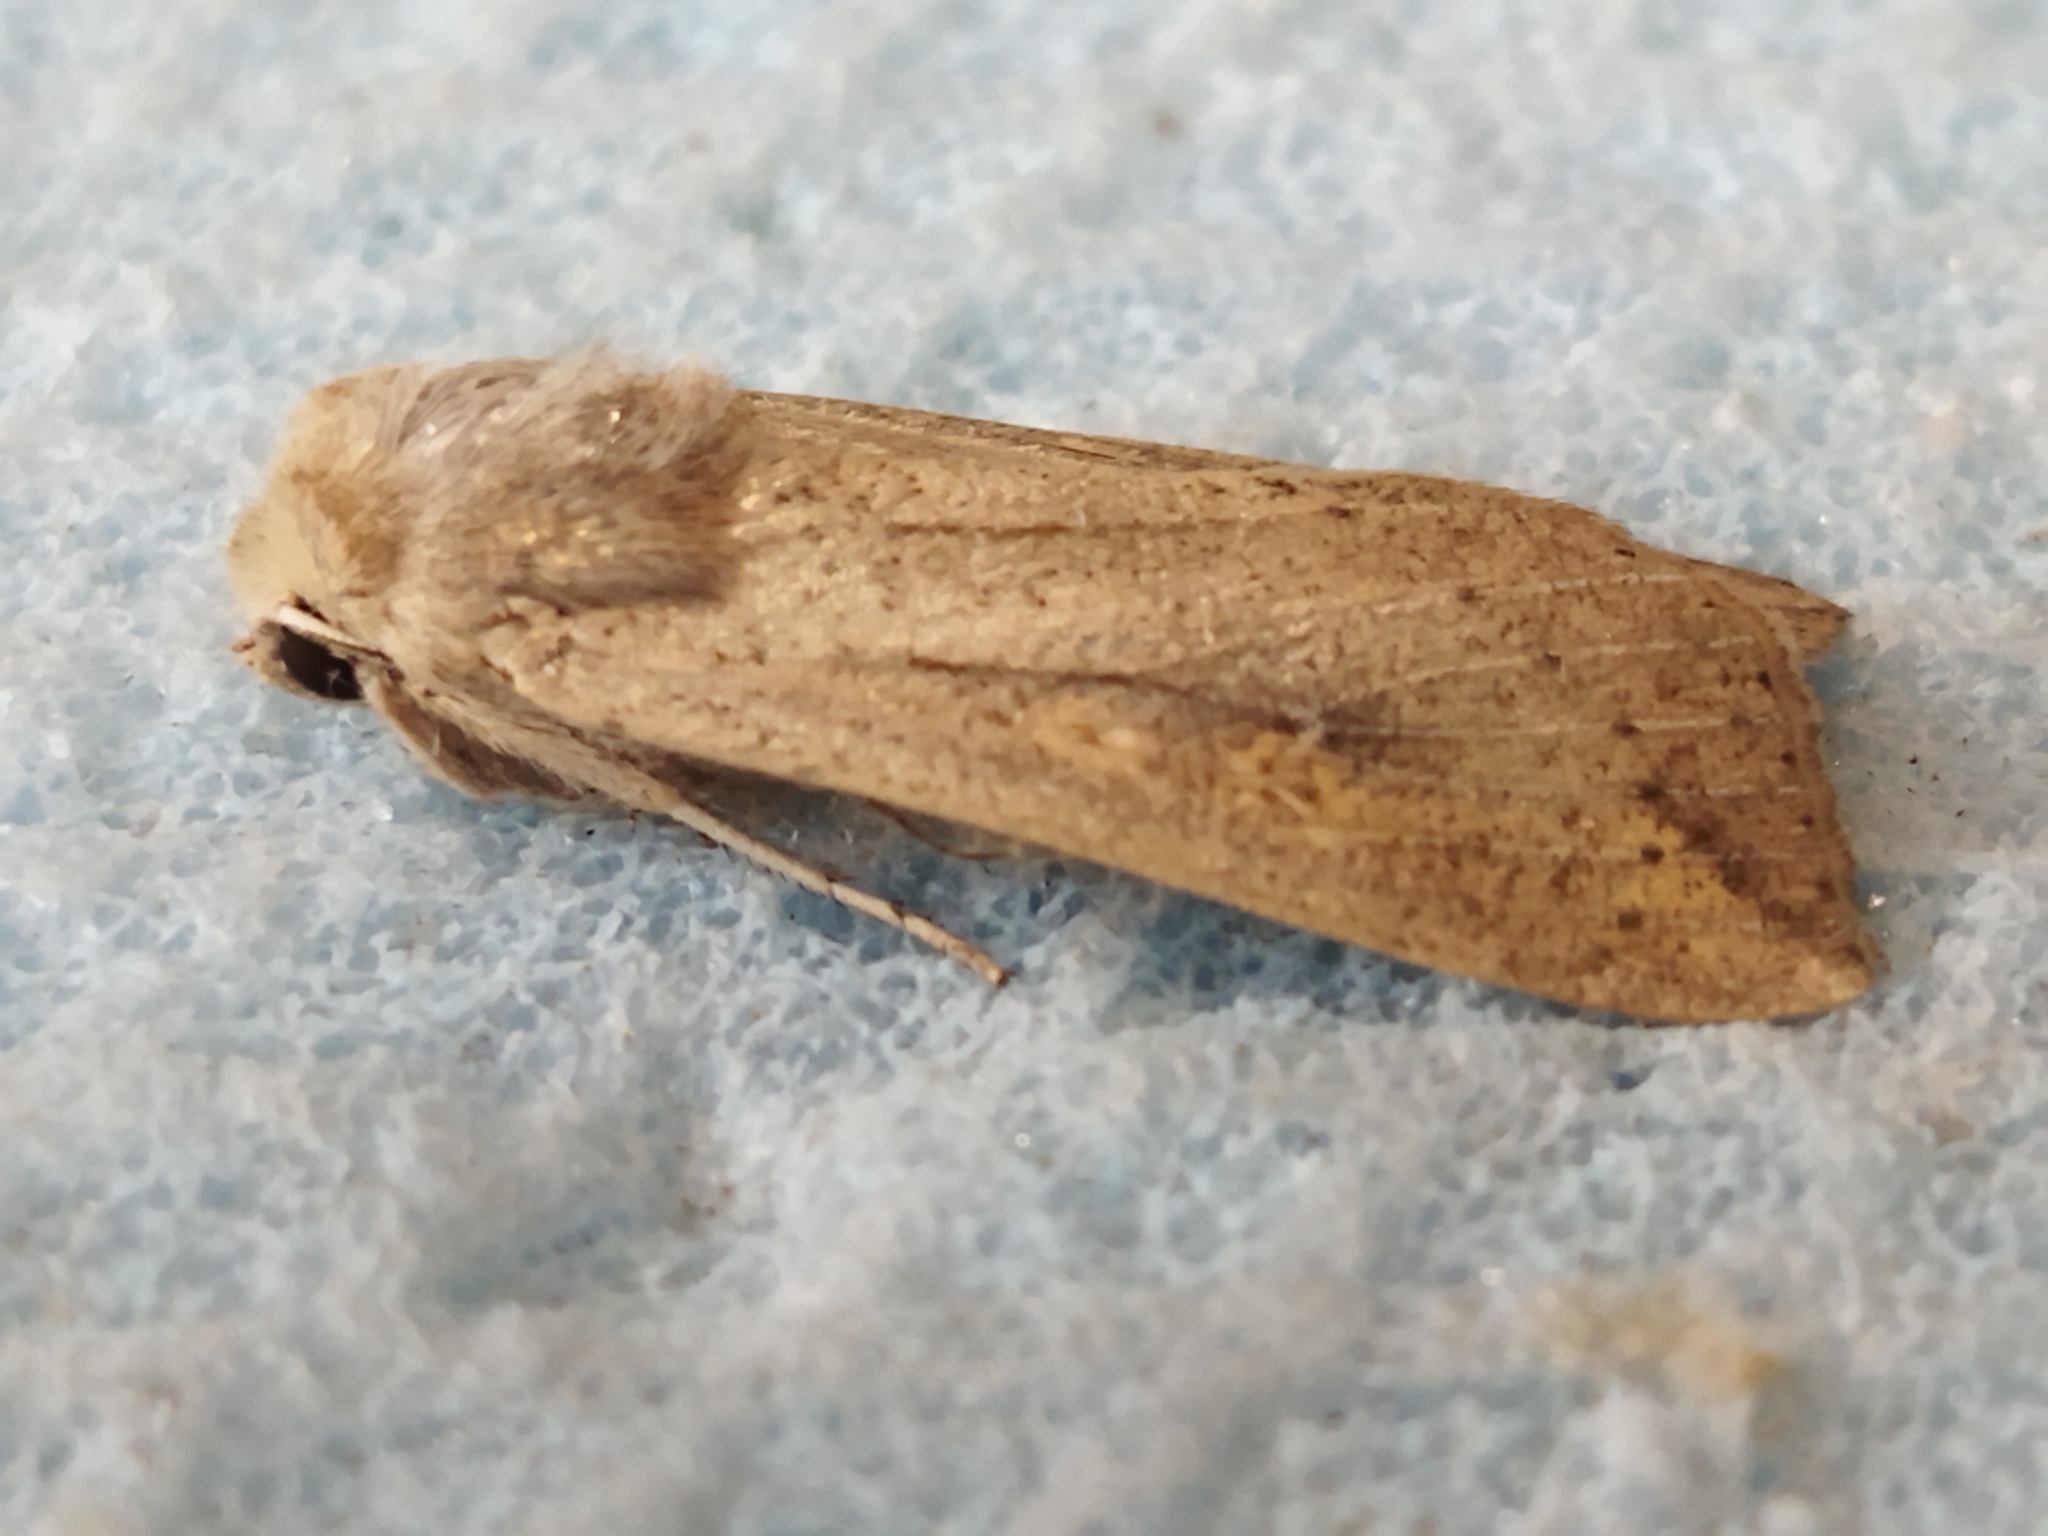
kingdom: Animalia
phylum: Arthropoda
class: Insecta
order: Lepidoptera
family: Noctuidae
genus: Mythimna
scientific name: Mythimna unipuncta
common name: White-speck
